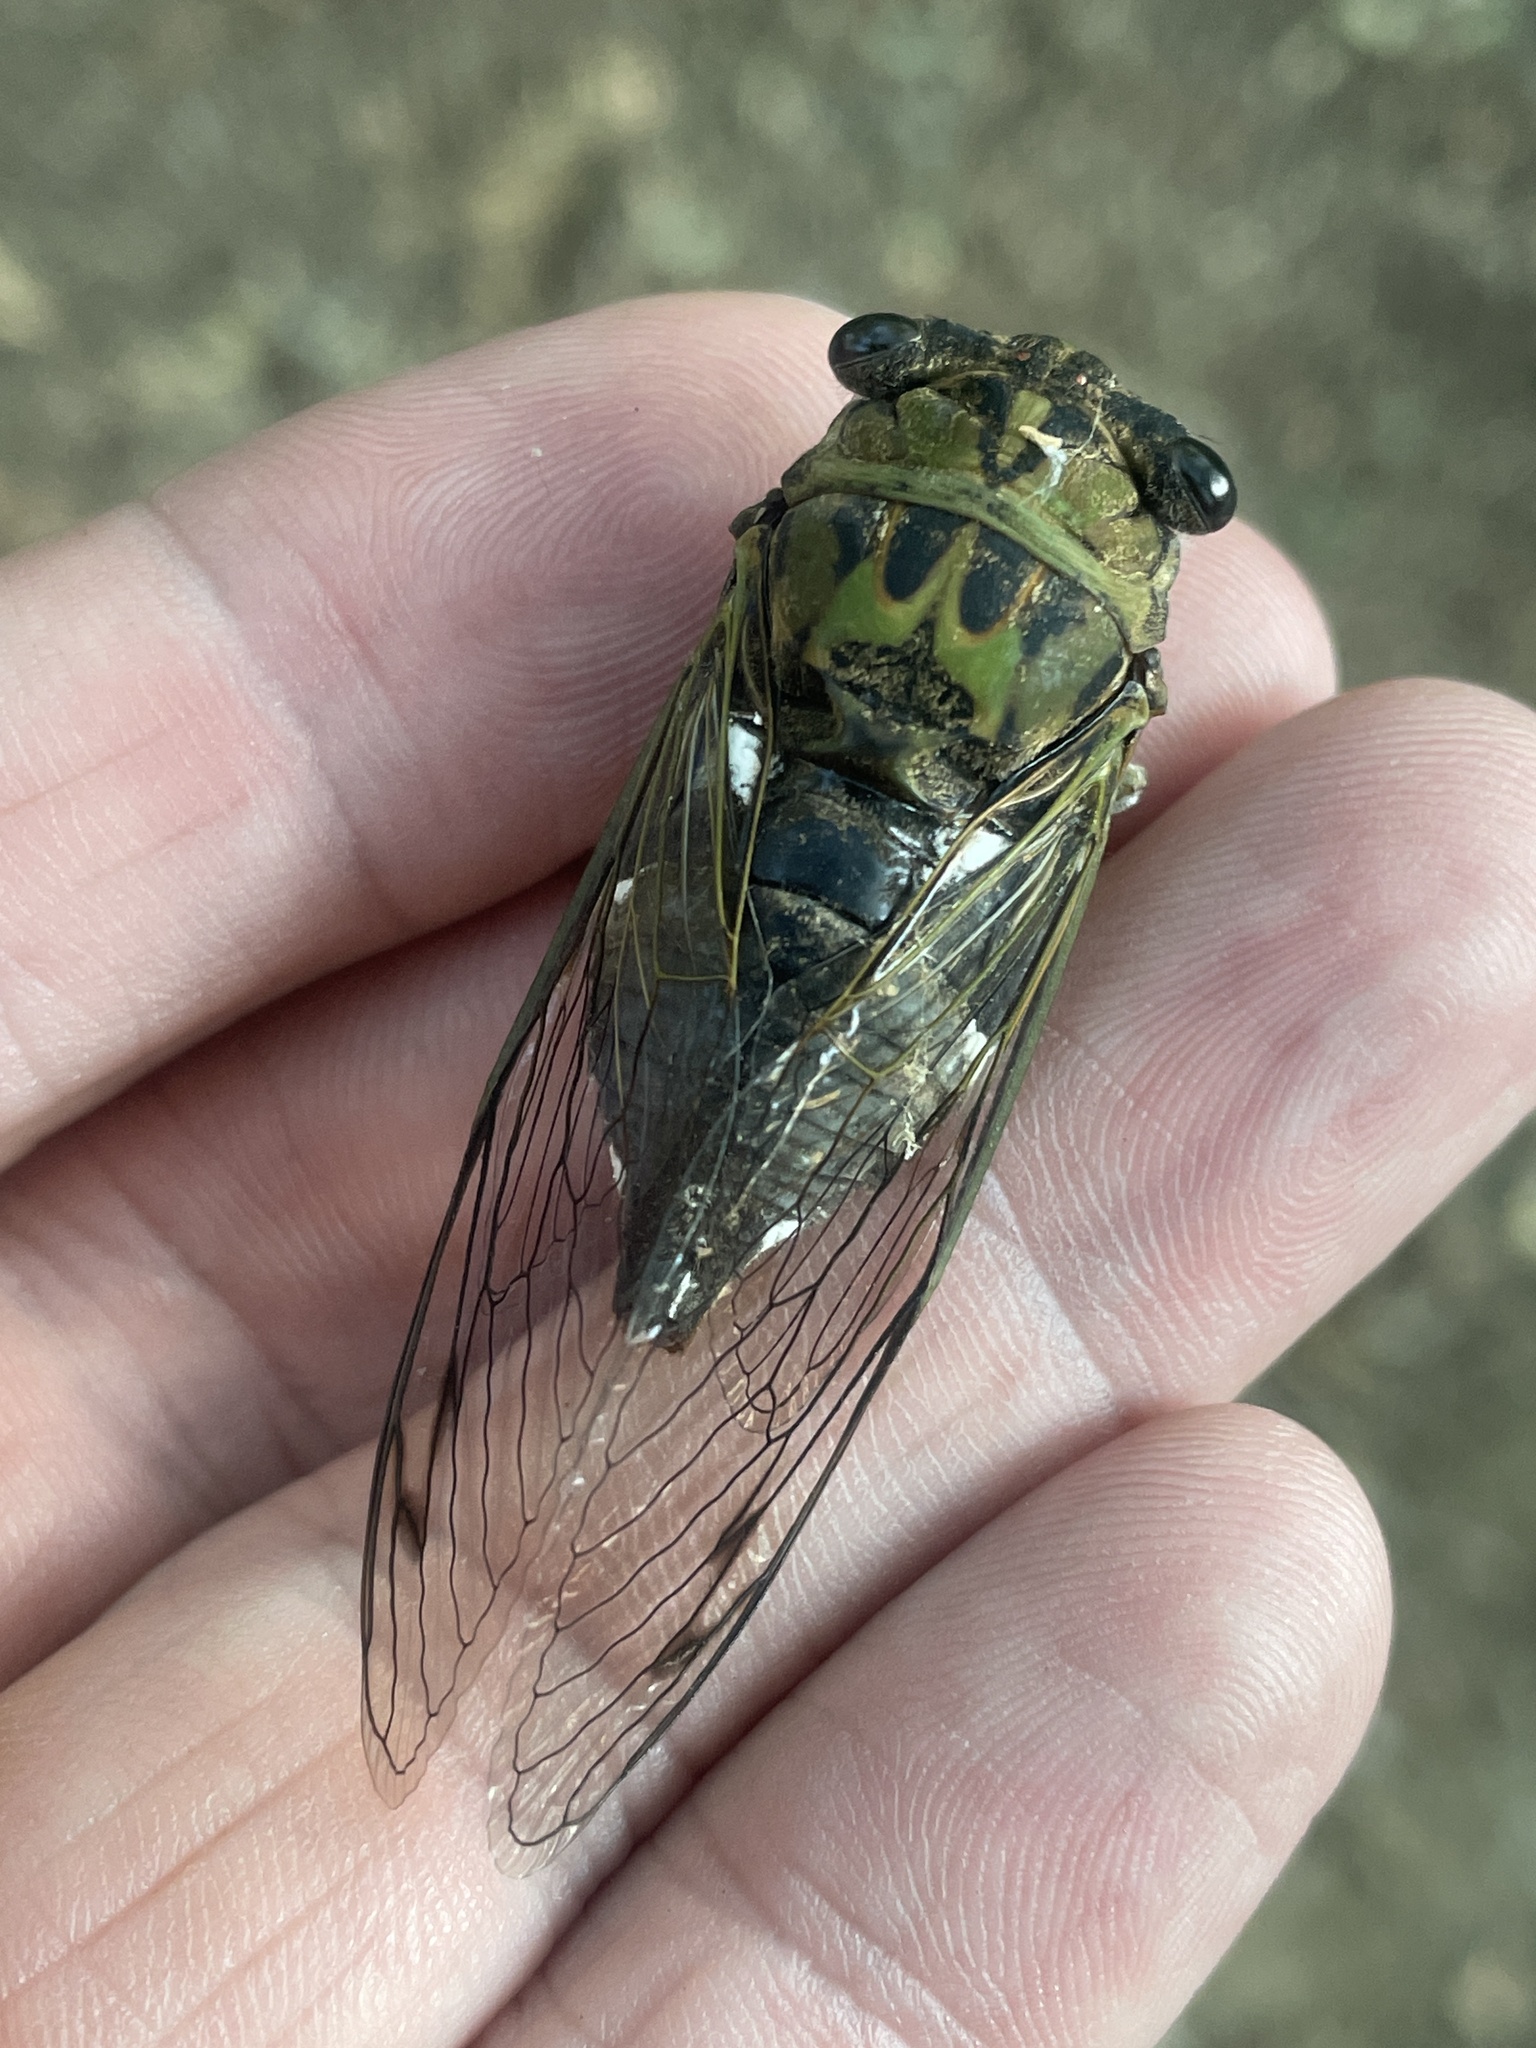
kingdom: Animalia
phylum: Arthropoda
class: Insecta
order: Hemiptera
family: Cicadidae
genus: Neotibicen
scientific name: Neotibicen pruinosus
